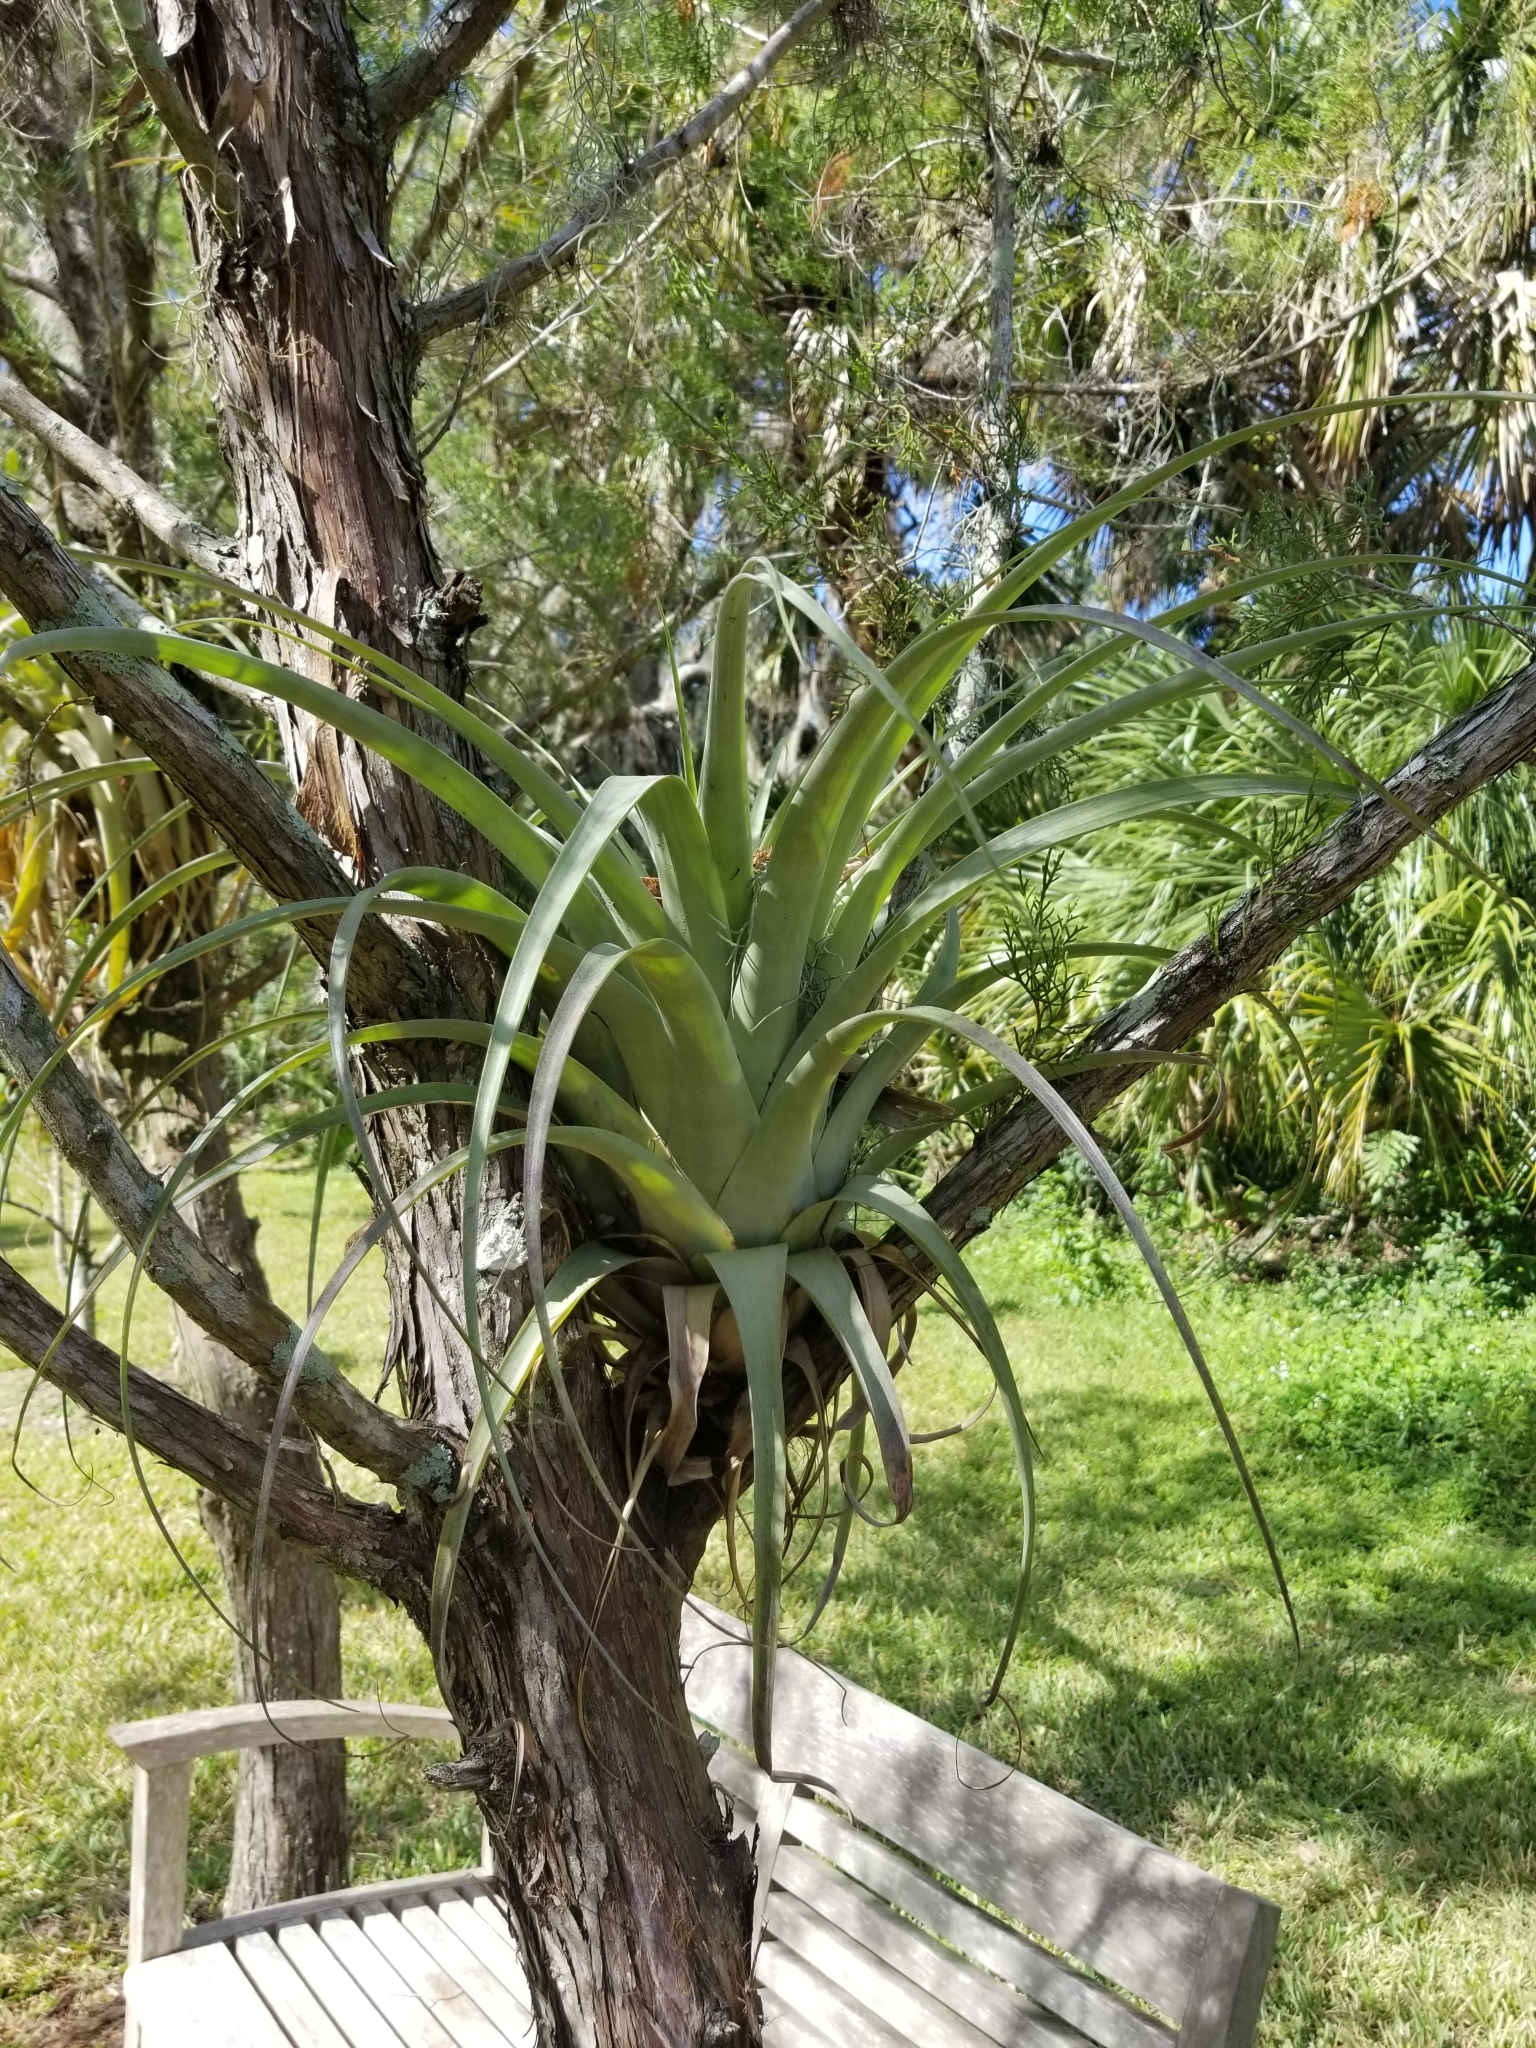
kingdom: Plantae
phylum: Tracheophyta
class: Liliopsida
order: Poales
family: Bromeliaceae
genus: Tillandsia
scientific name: Tillandsia utriculata
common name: Wild pine
